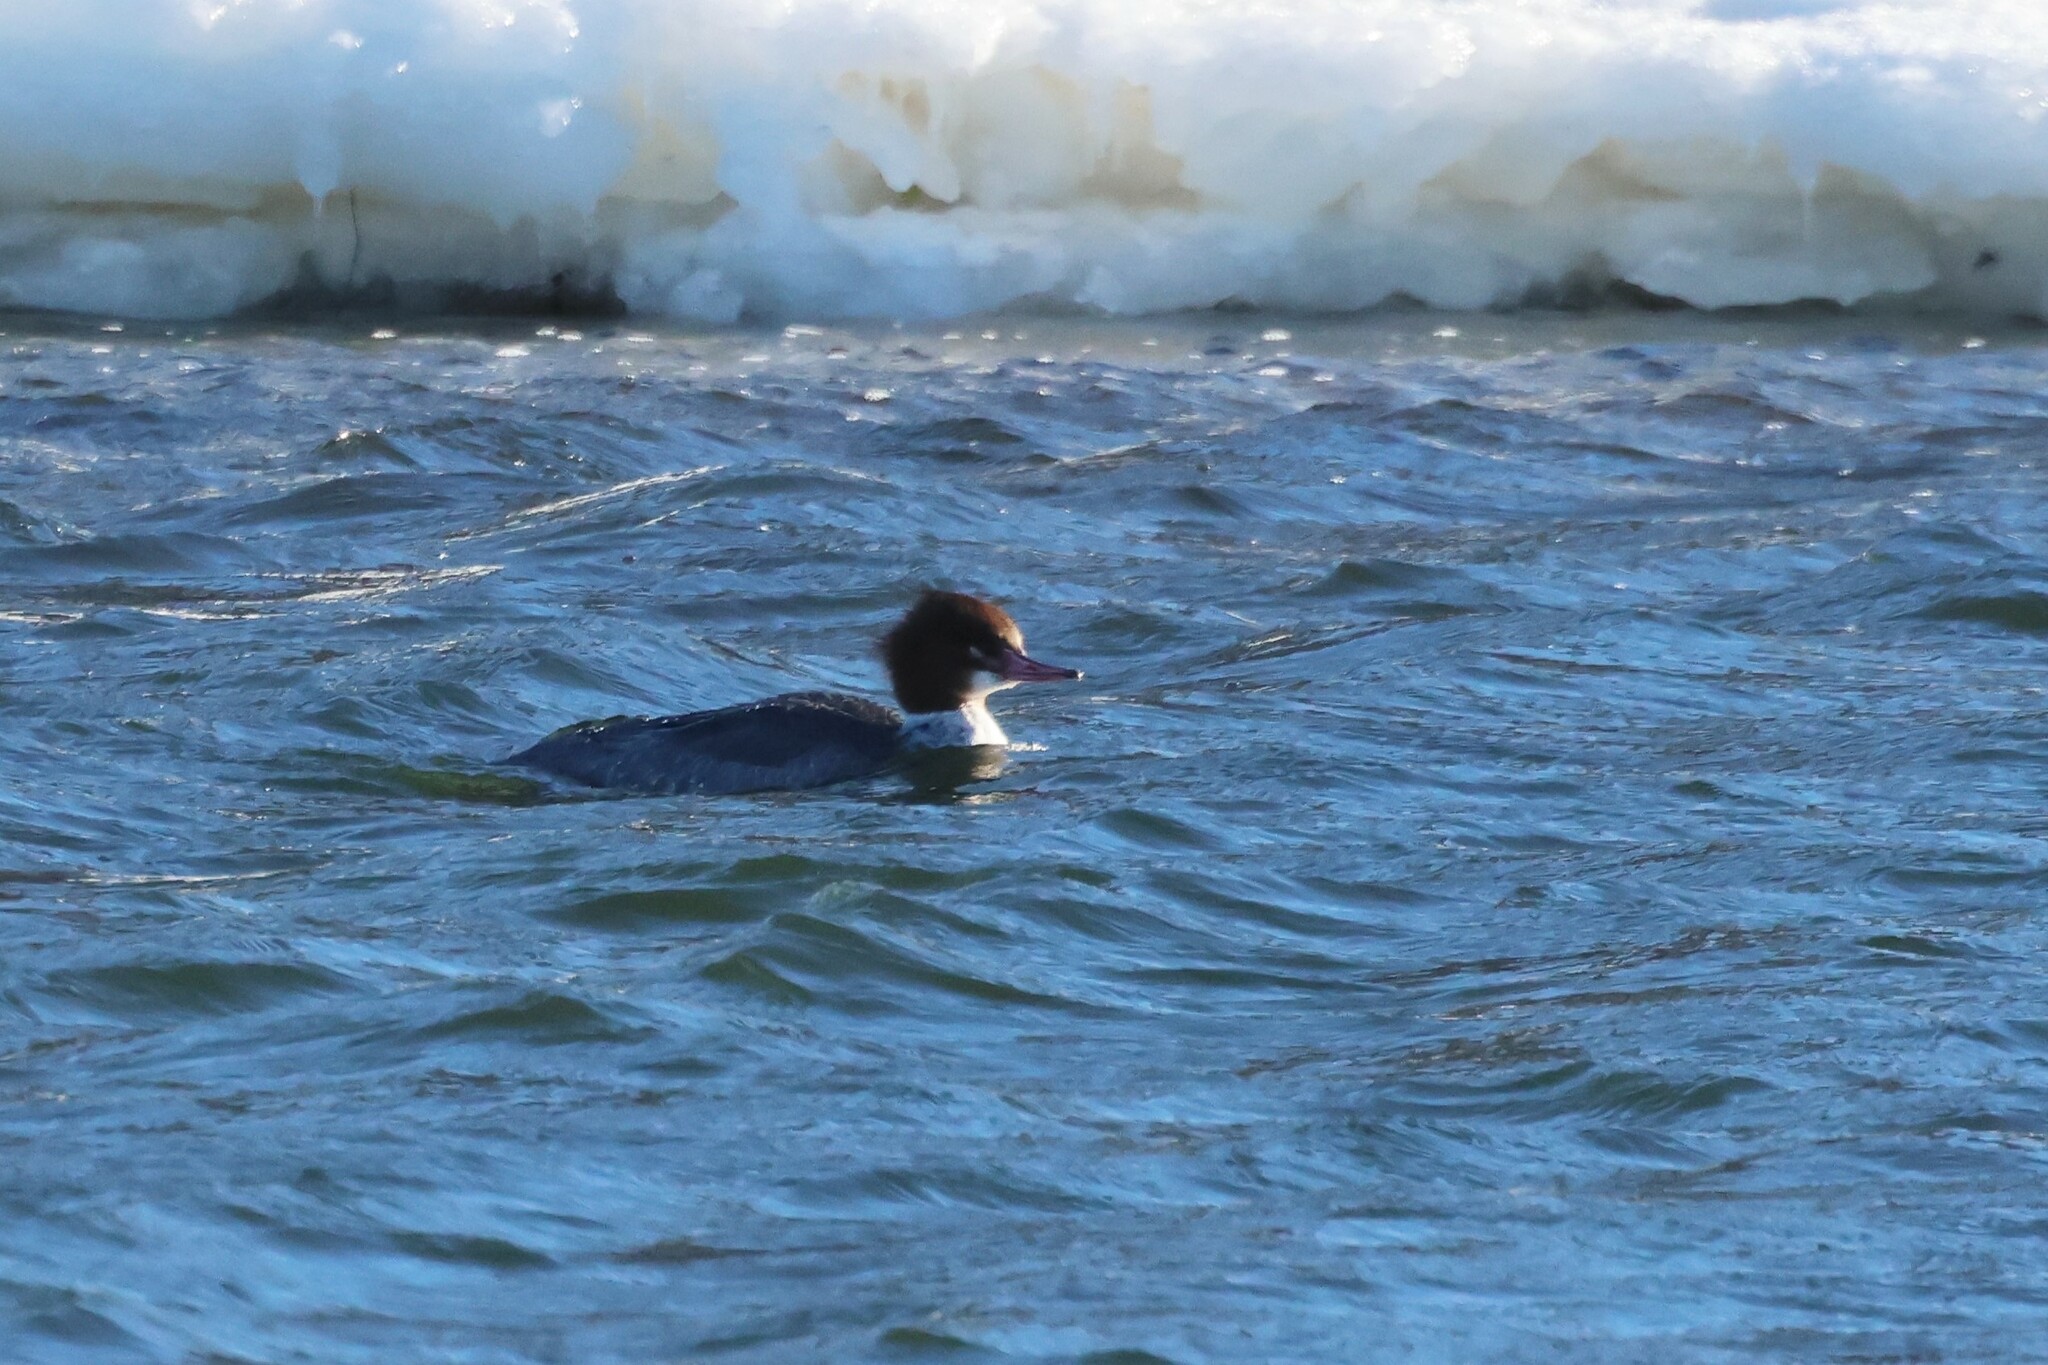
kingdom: Animalia
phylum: Chordata
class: Aves
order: Anseriformes
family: Anatidae
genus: Mergus
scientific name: Mergus merganser
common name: Common merganser
